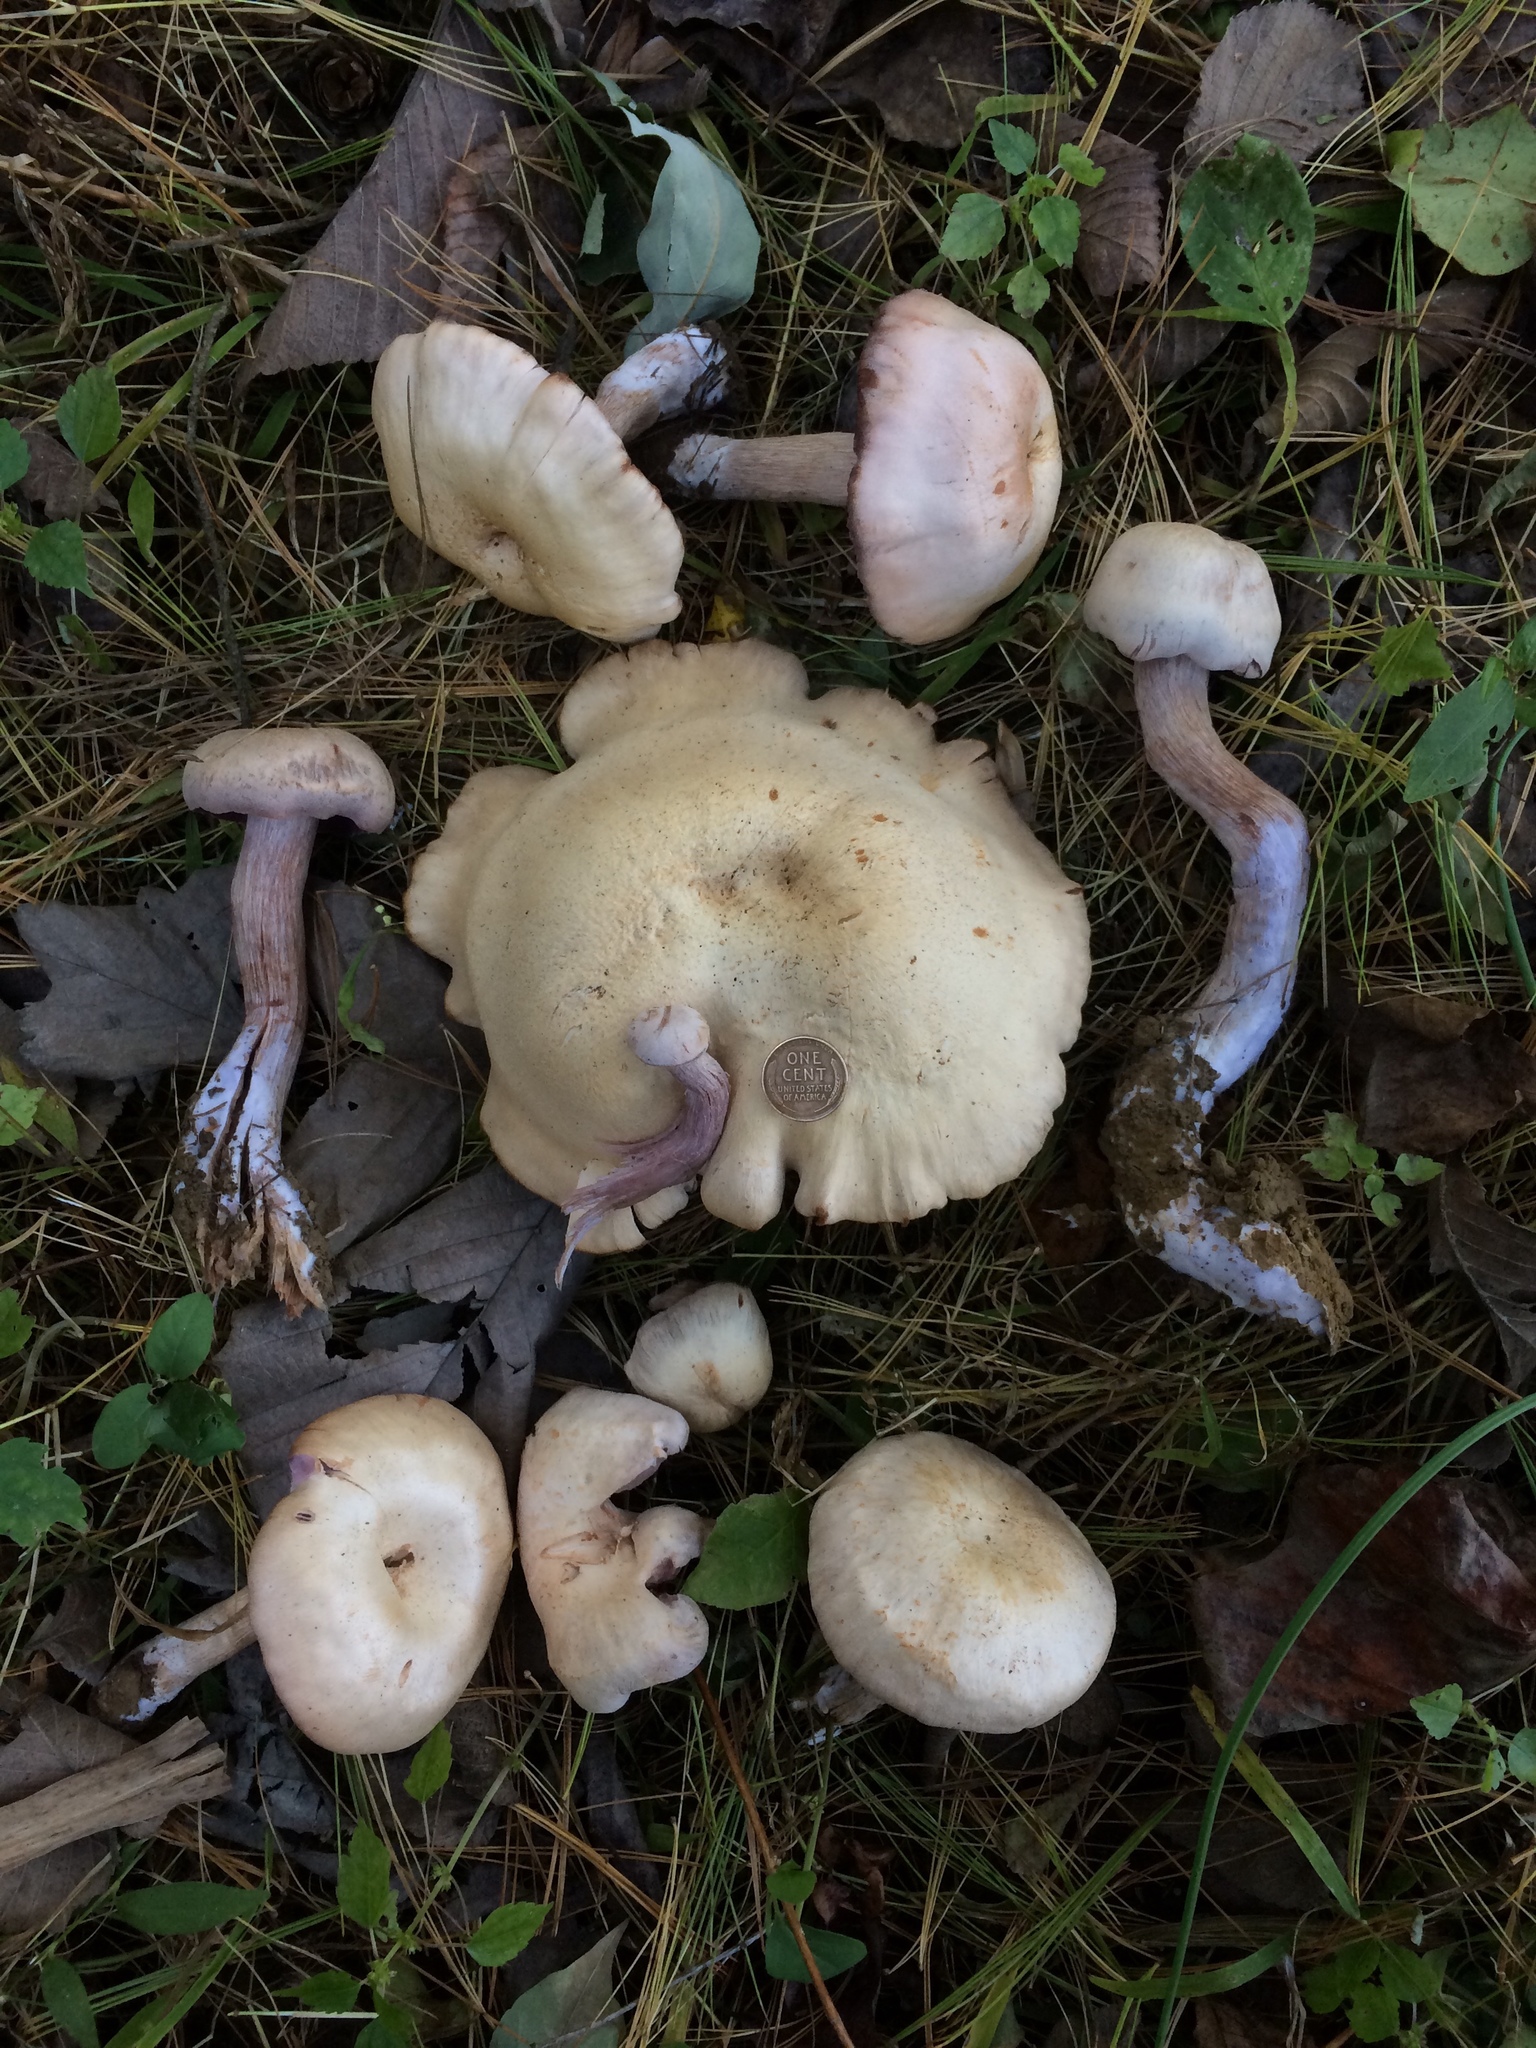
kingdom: Fungi
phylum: Basidiomycota
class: Agaricomycetes
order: Agaricales
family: Hydnangiaceae
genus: Laccaria
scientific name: Laccaria ochropurpurea
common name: Purple laccaria
